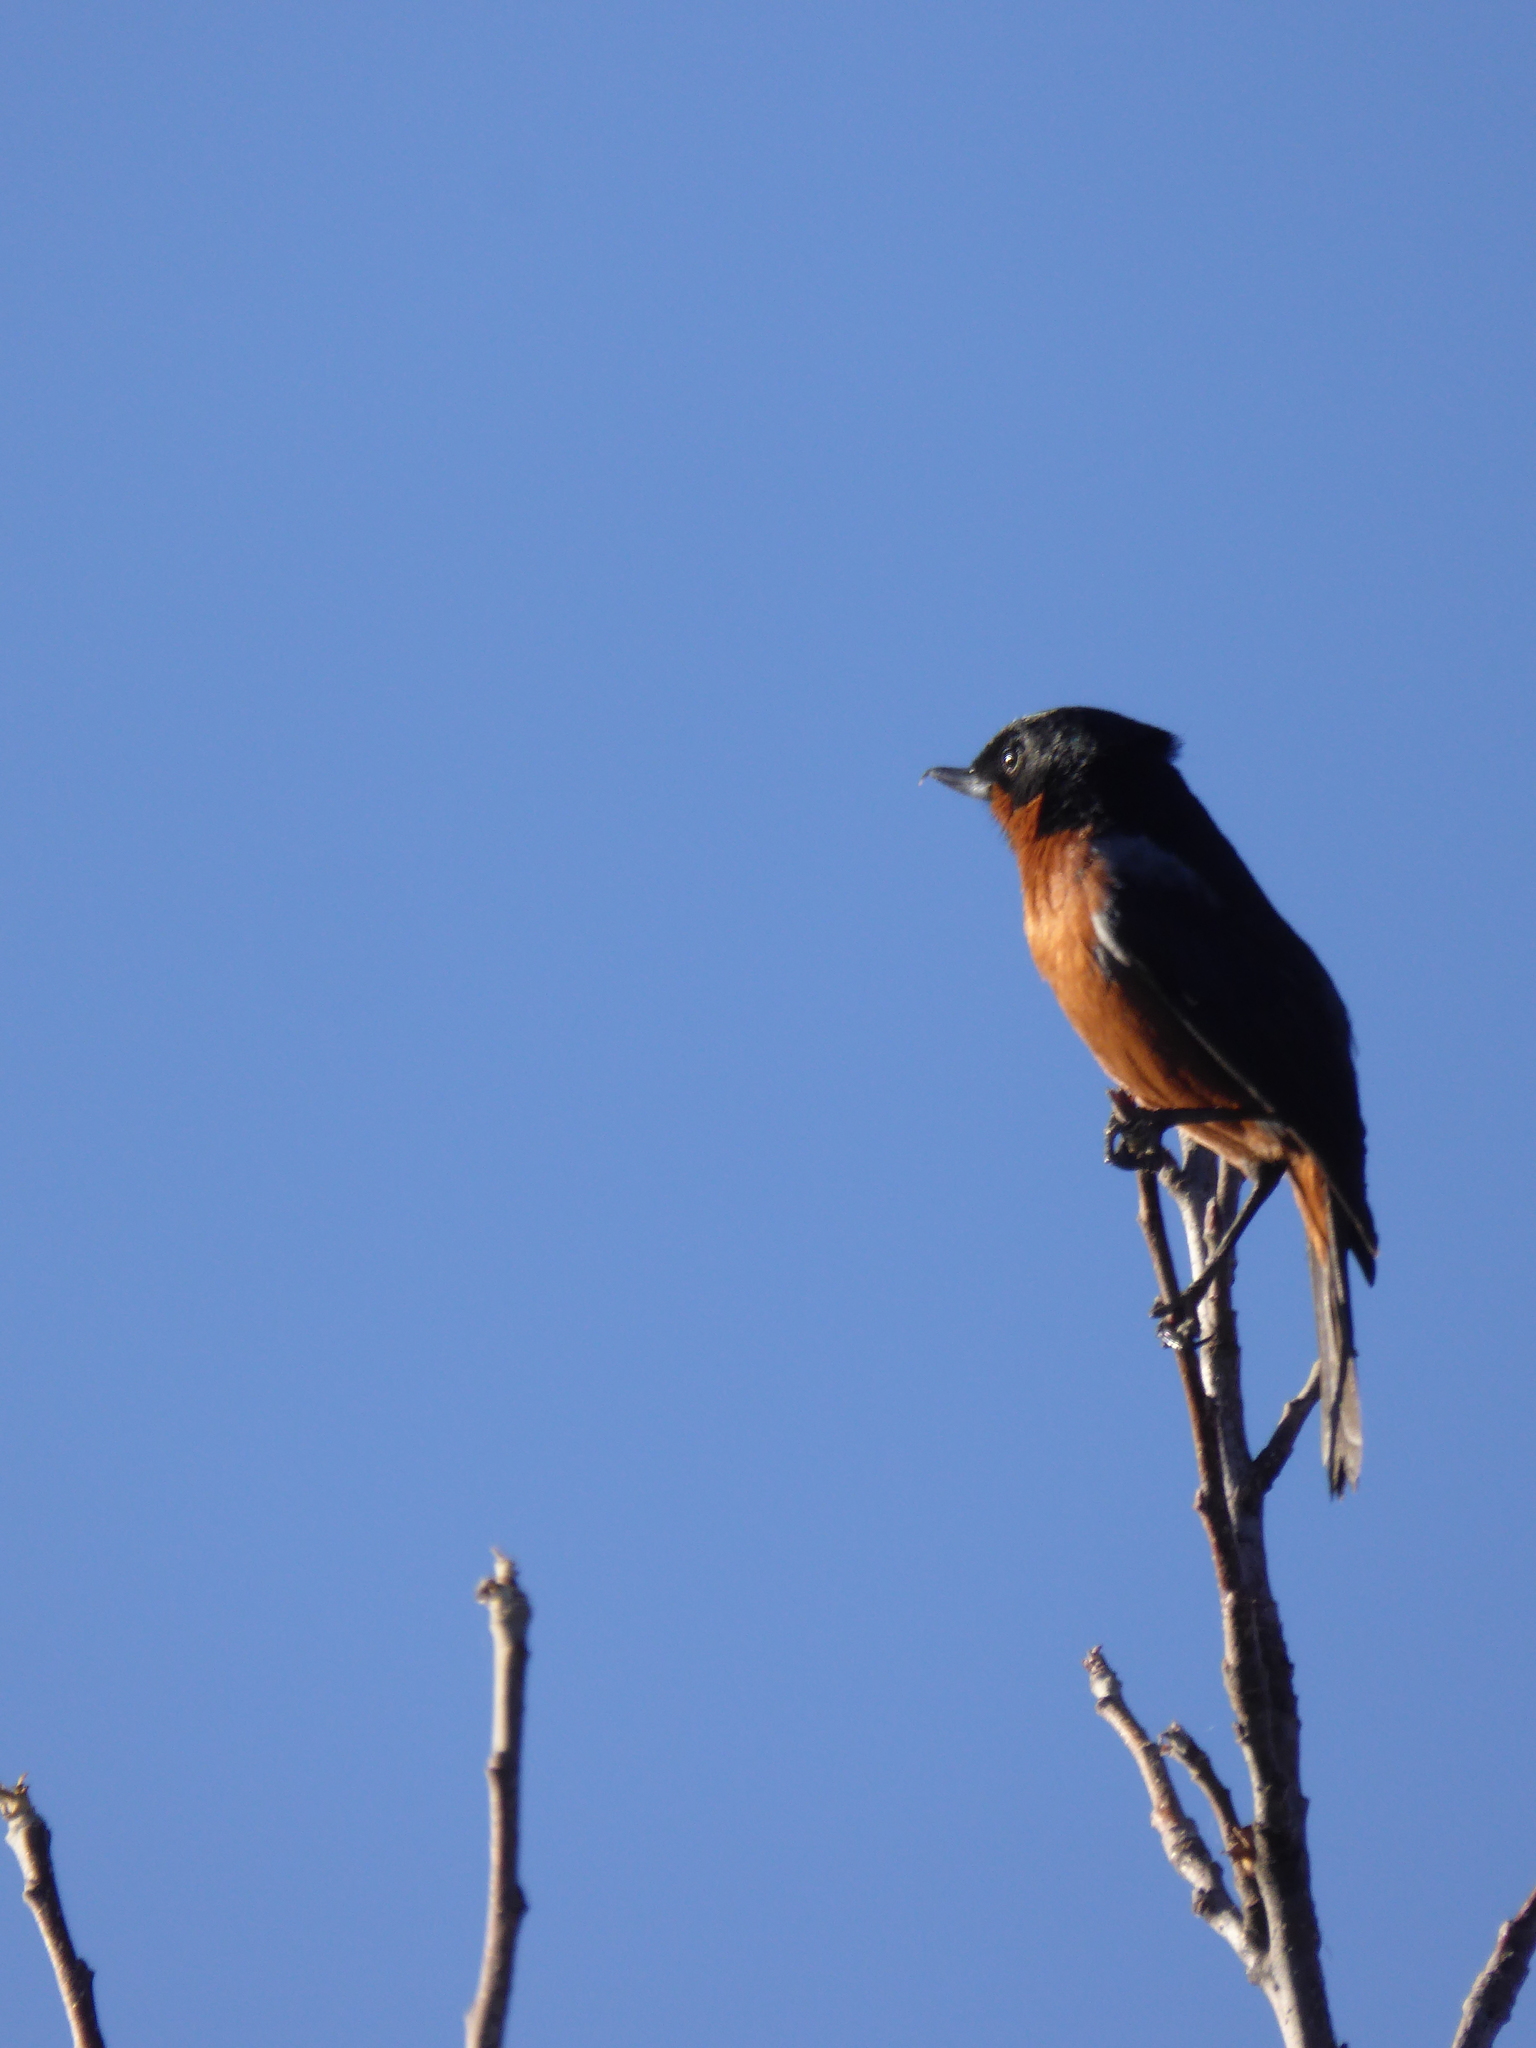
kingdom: Animalia
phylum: Chordata
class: Aves
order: Passeriformes
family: Thraupidae
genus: Diglossa
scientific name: Diglossa brunneiventris
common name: Black-throated flowerpiercer
